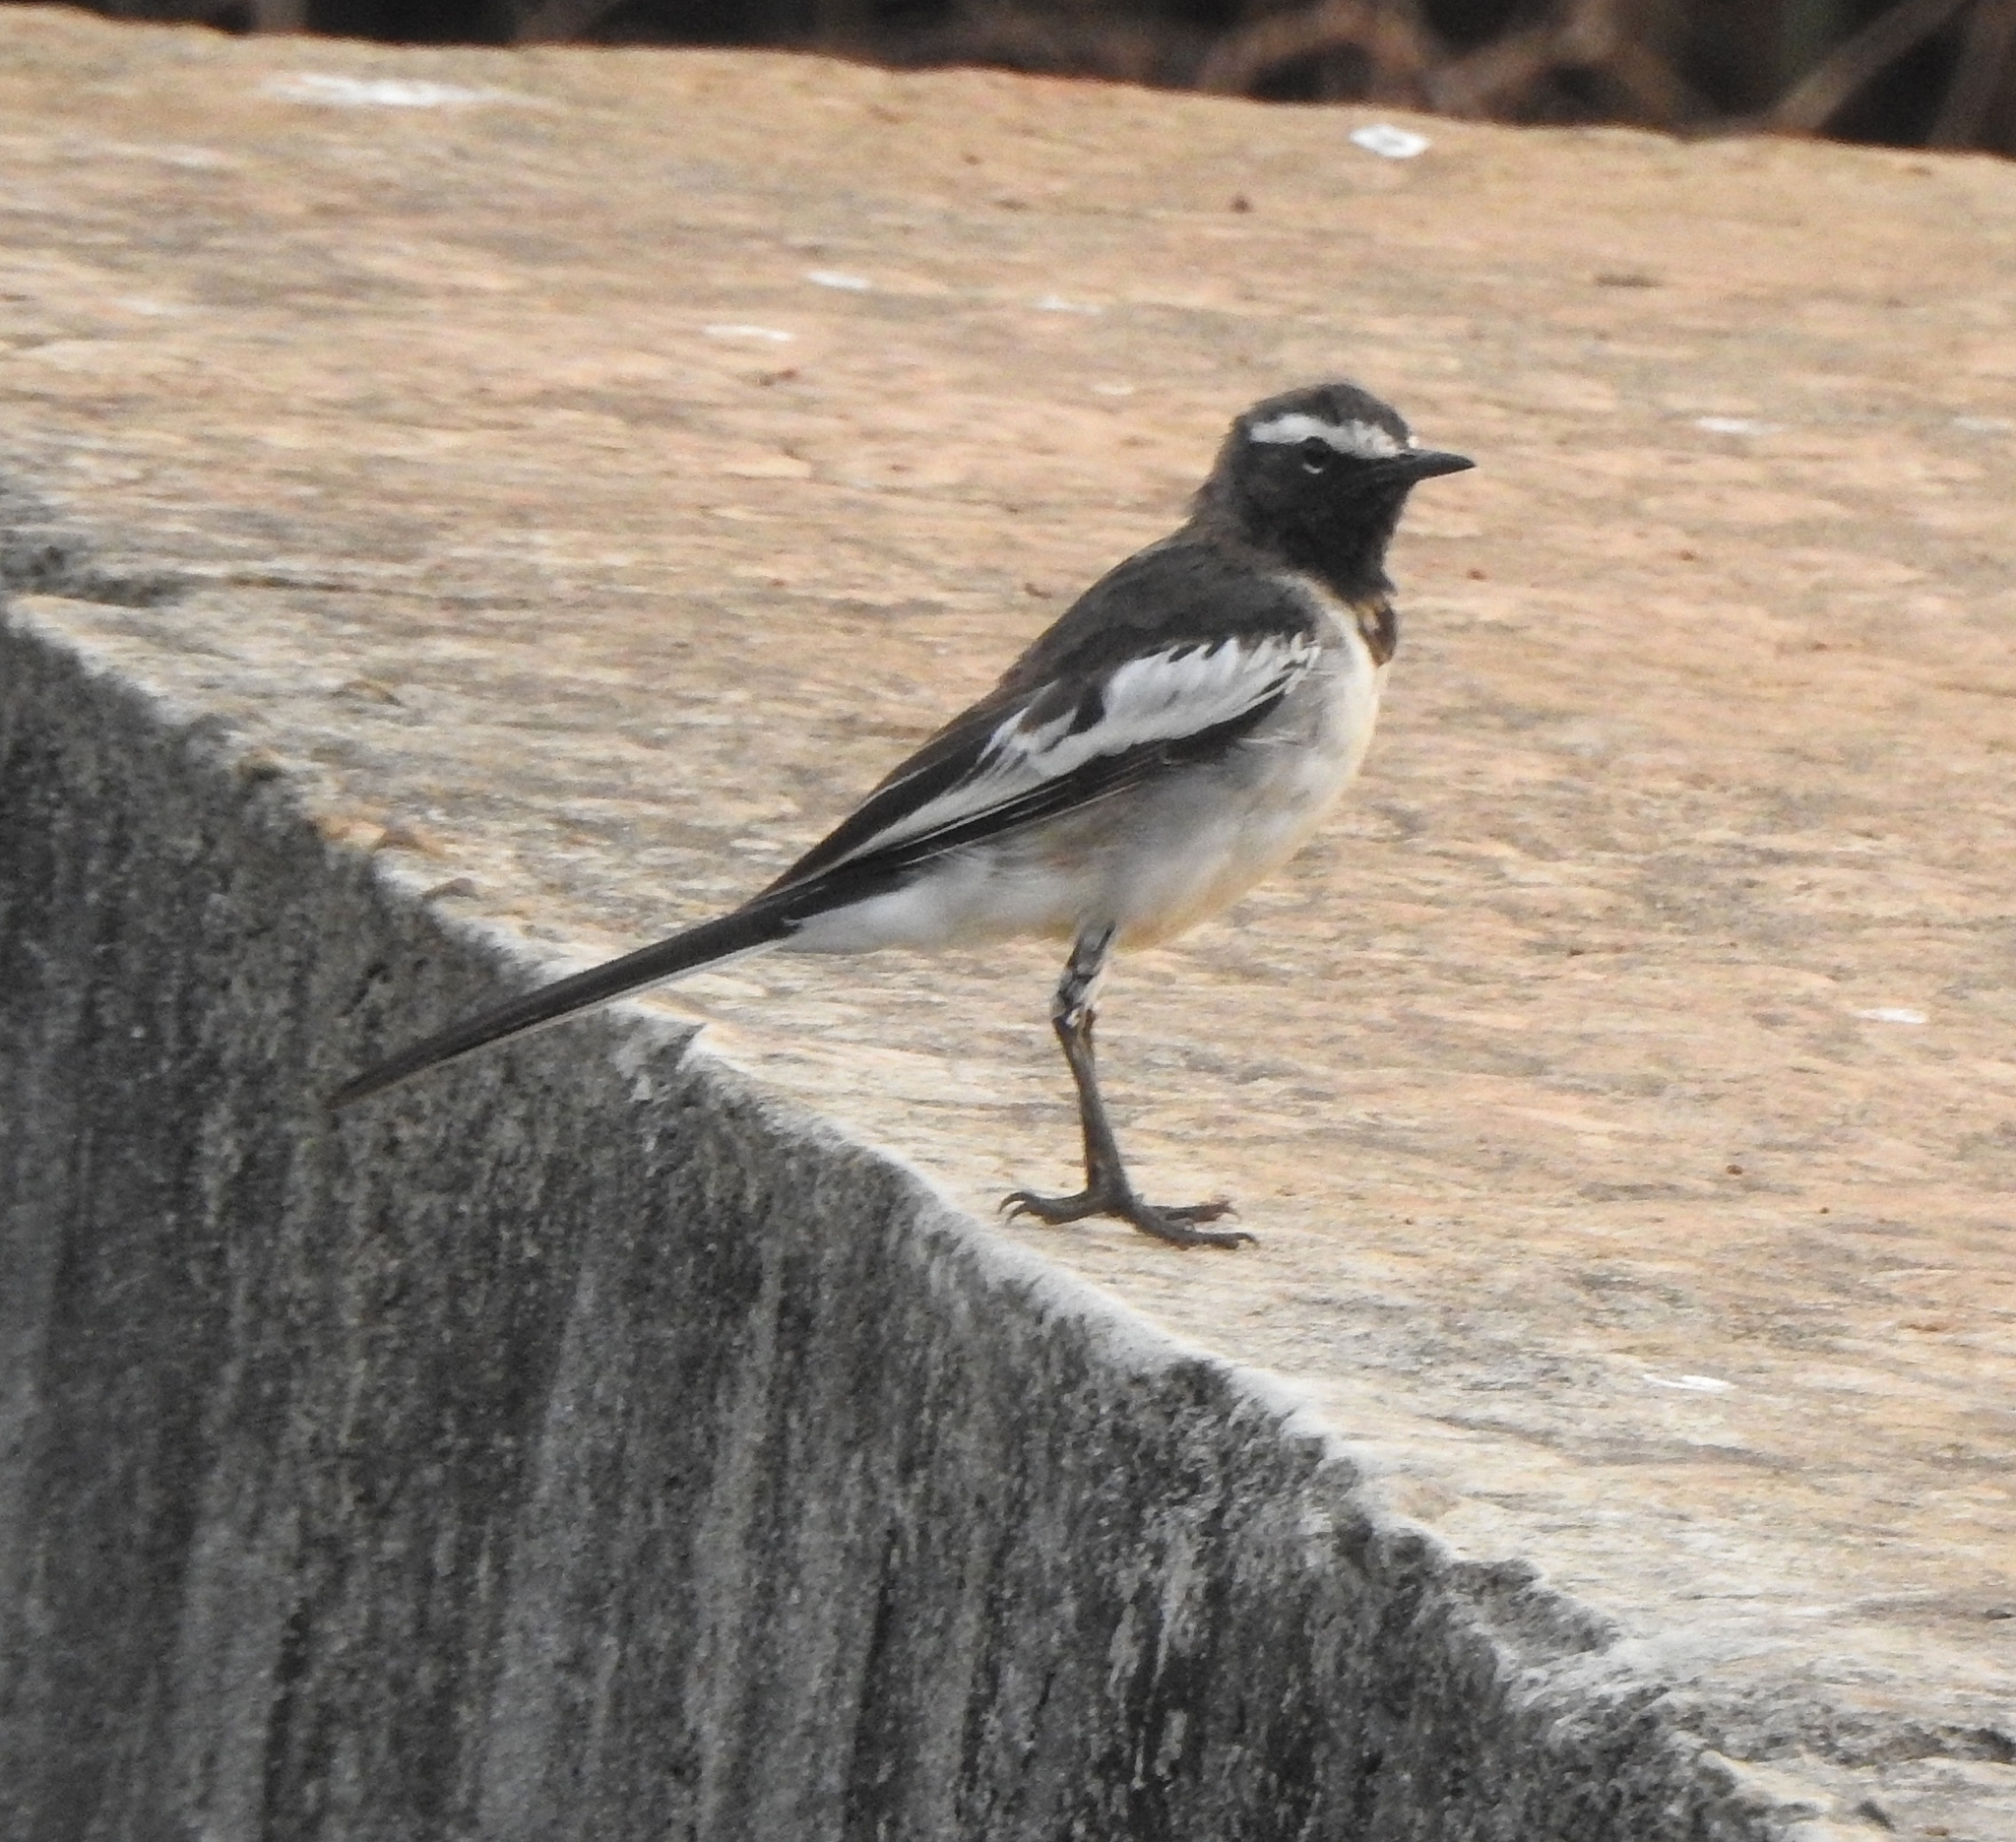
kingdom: Animalia
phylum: Chordata
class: Aves
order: Passeriformes
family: Motacillidae
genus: Motacilla
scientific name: Motacilla maderaspatensis
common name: White-browed wagtail
